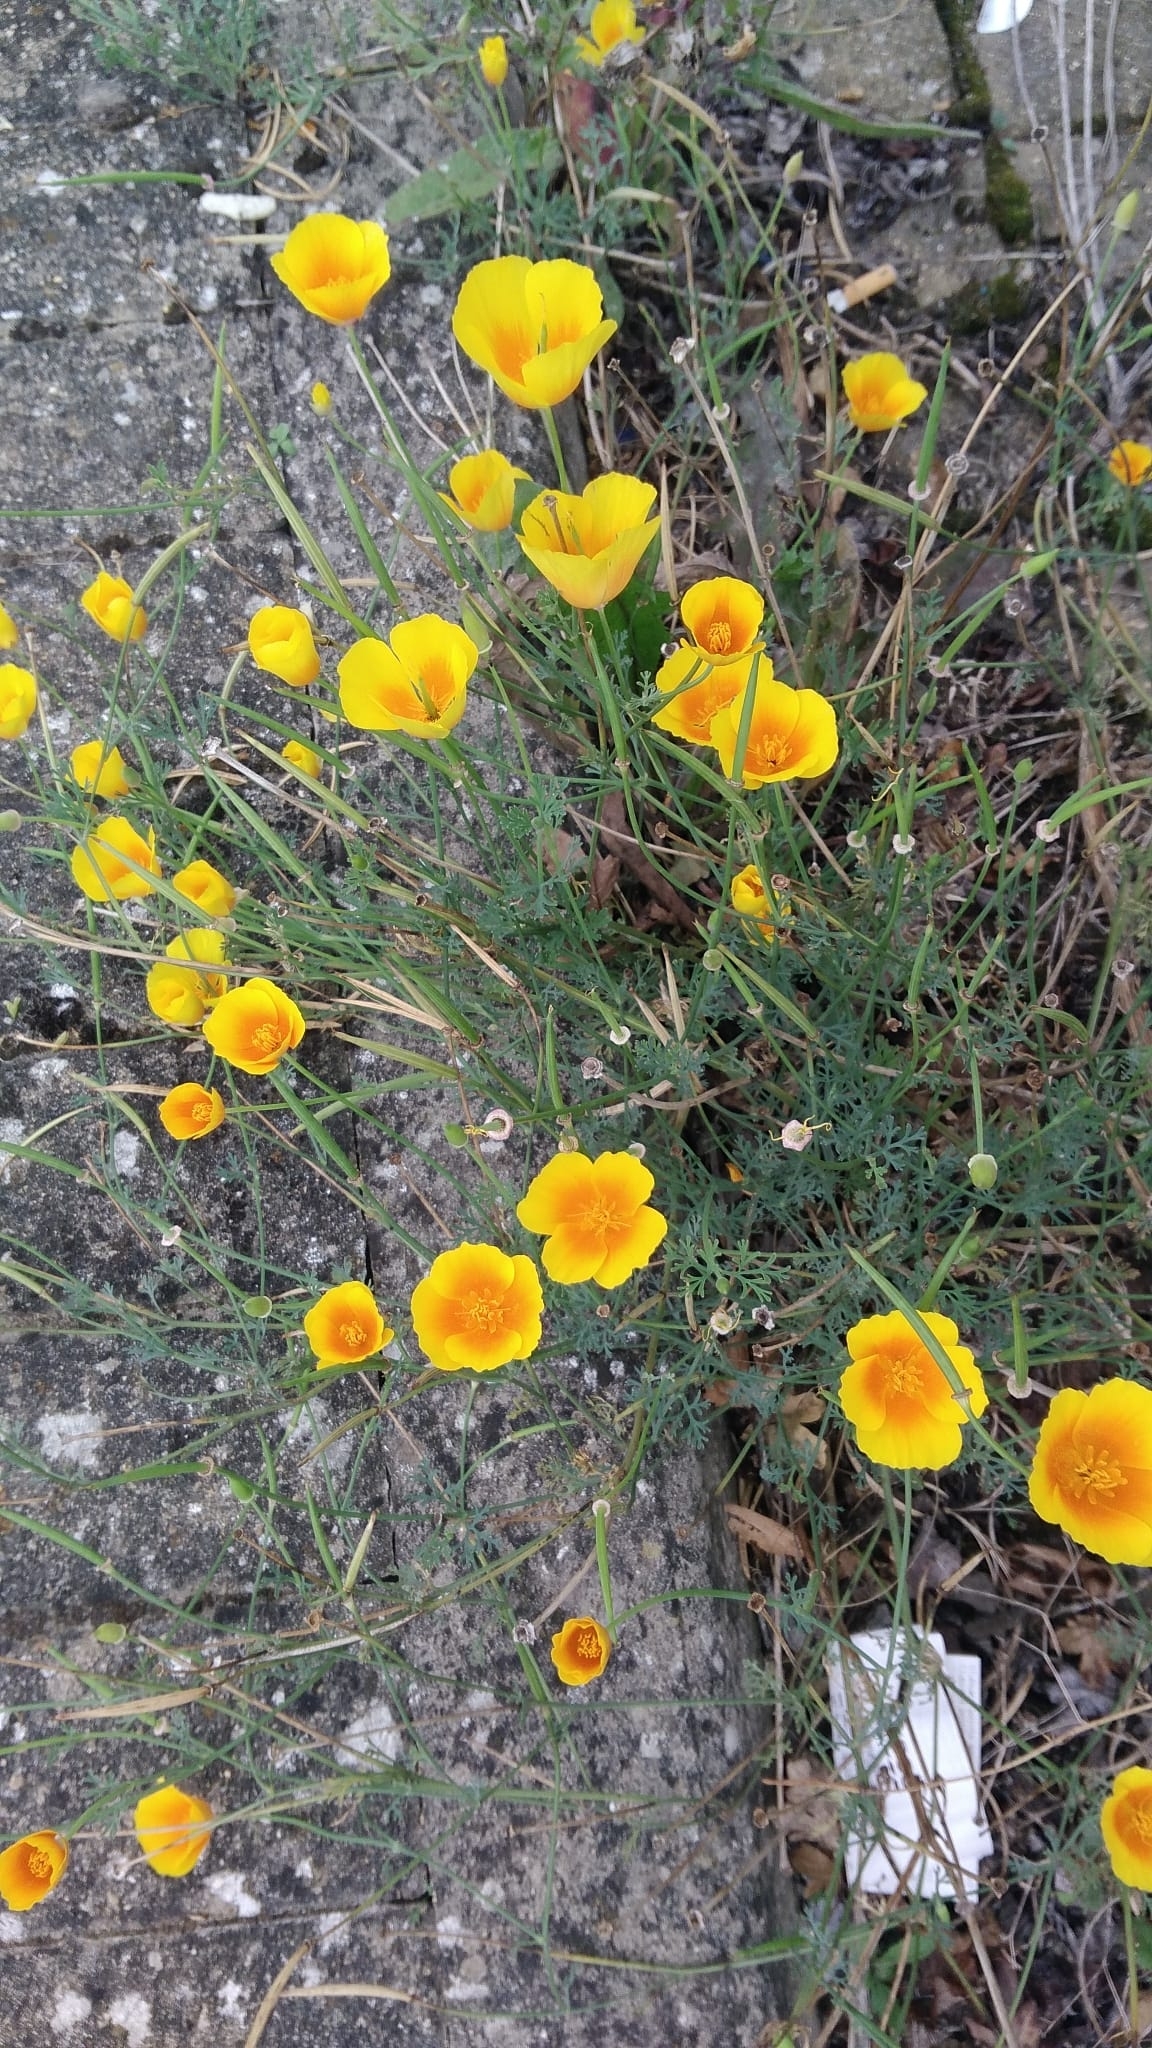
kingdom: Plantae
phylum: Tracheophyta
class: Magnoliopsida
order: Ranunculales
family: Papaveraceae
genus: Eschscholzia
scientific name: Eschscholzia californica
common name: California poppy
